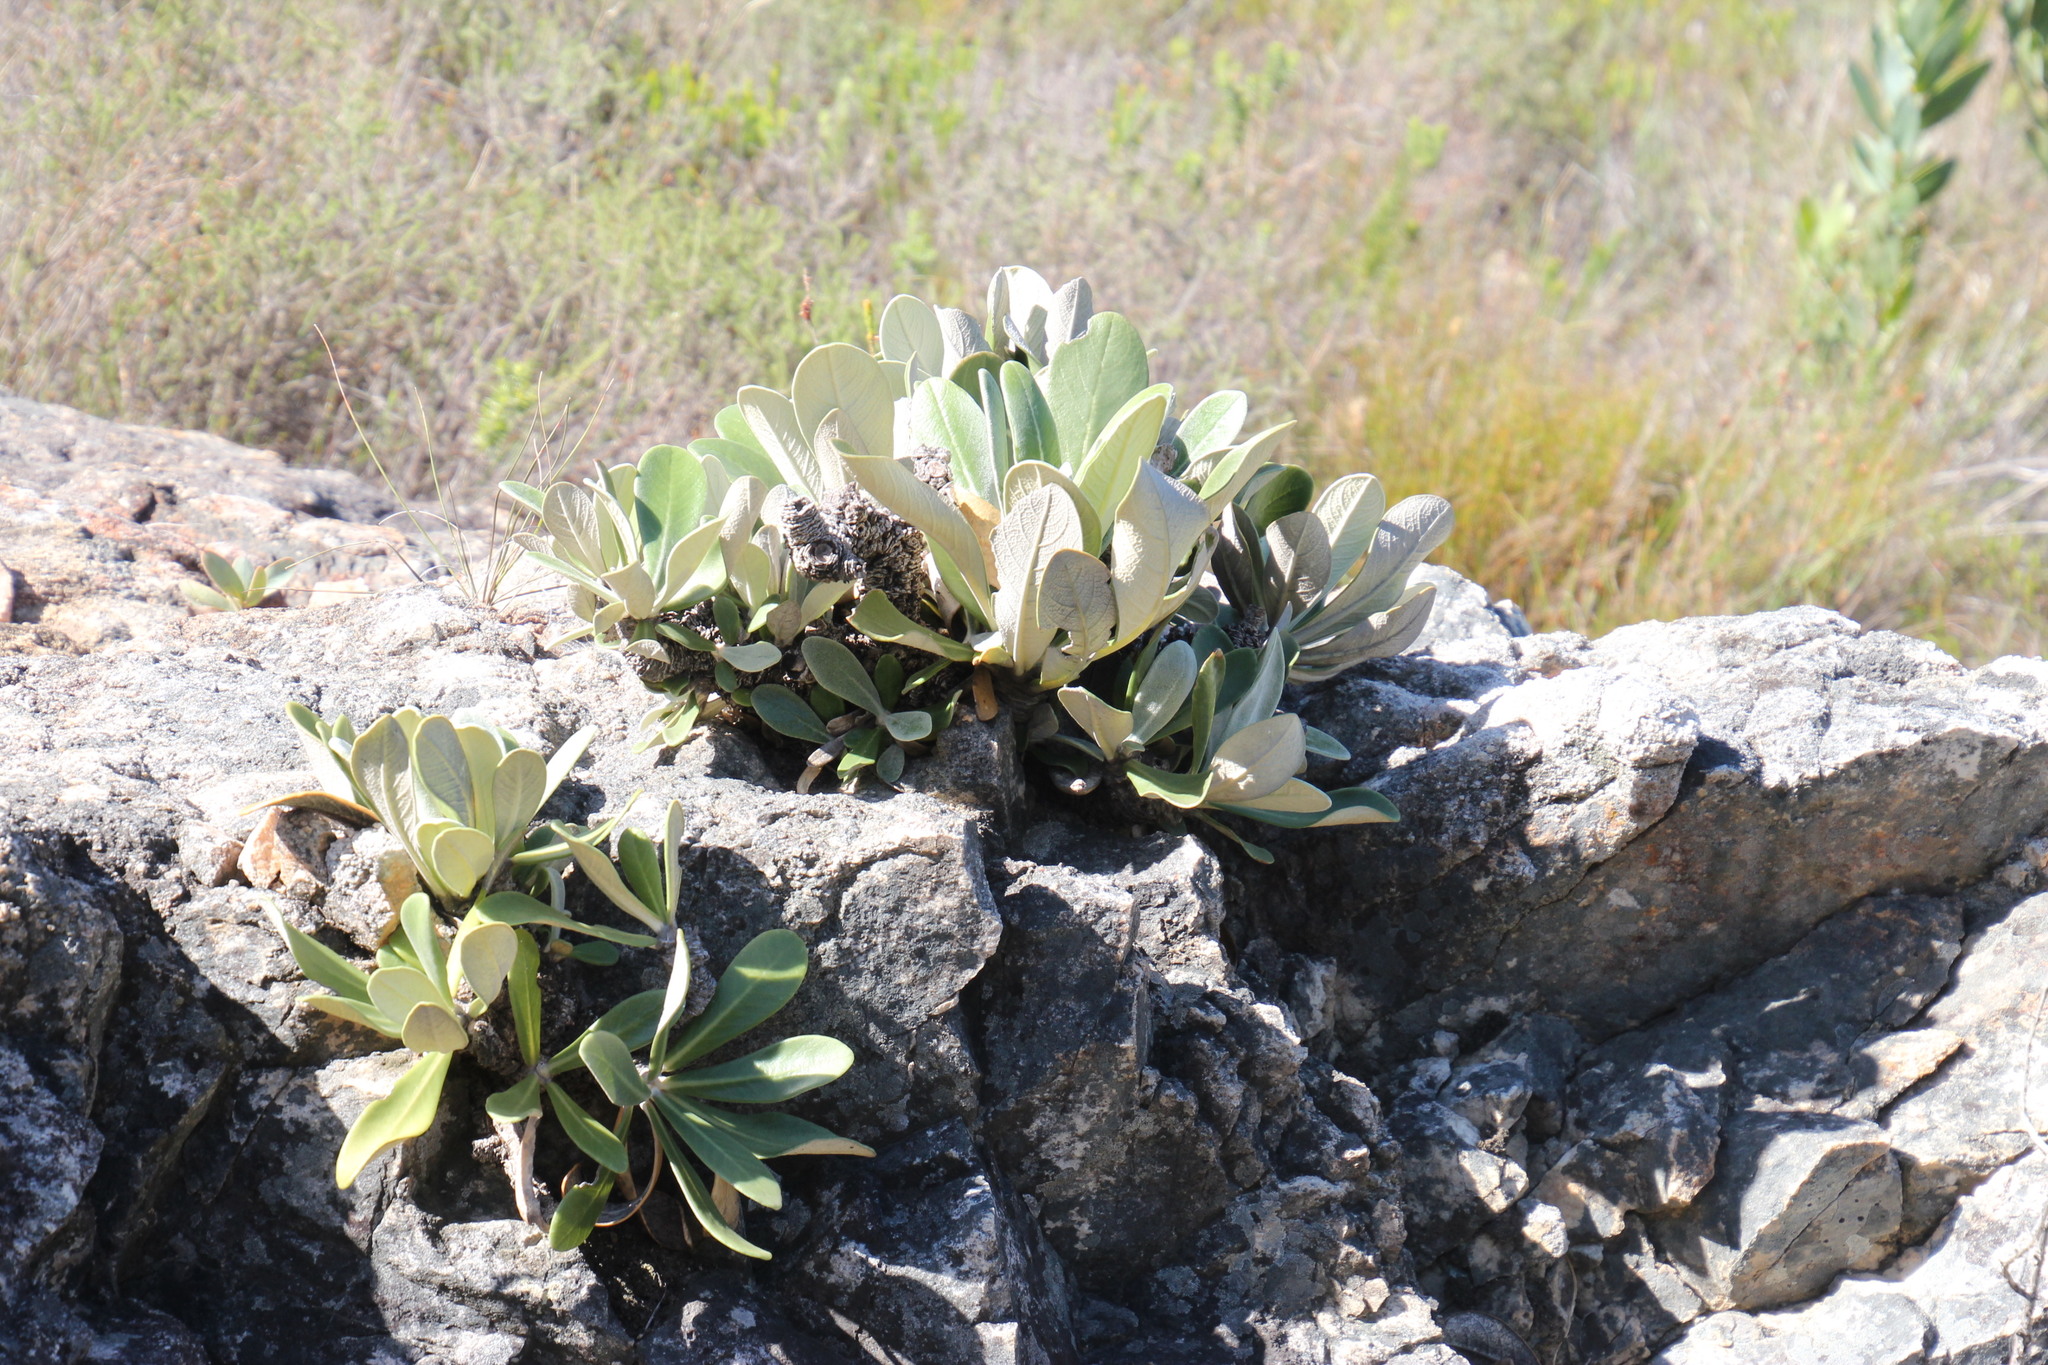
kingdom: Plantae
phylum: Tracheophyta
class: Magnoliopsida
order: Asterales
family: Asteraceae
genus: Oldenburgia
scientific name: Oldenburgia papionum
